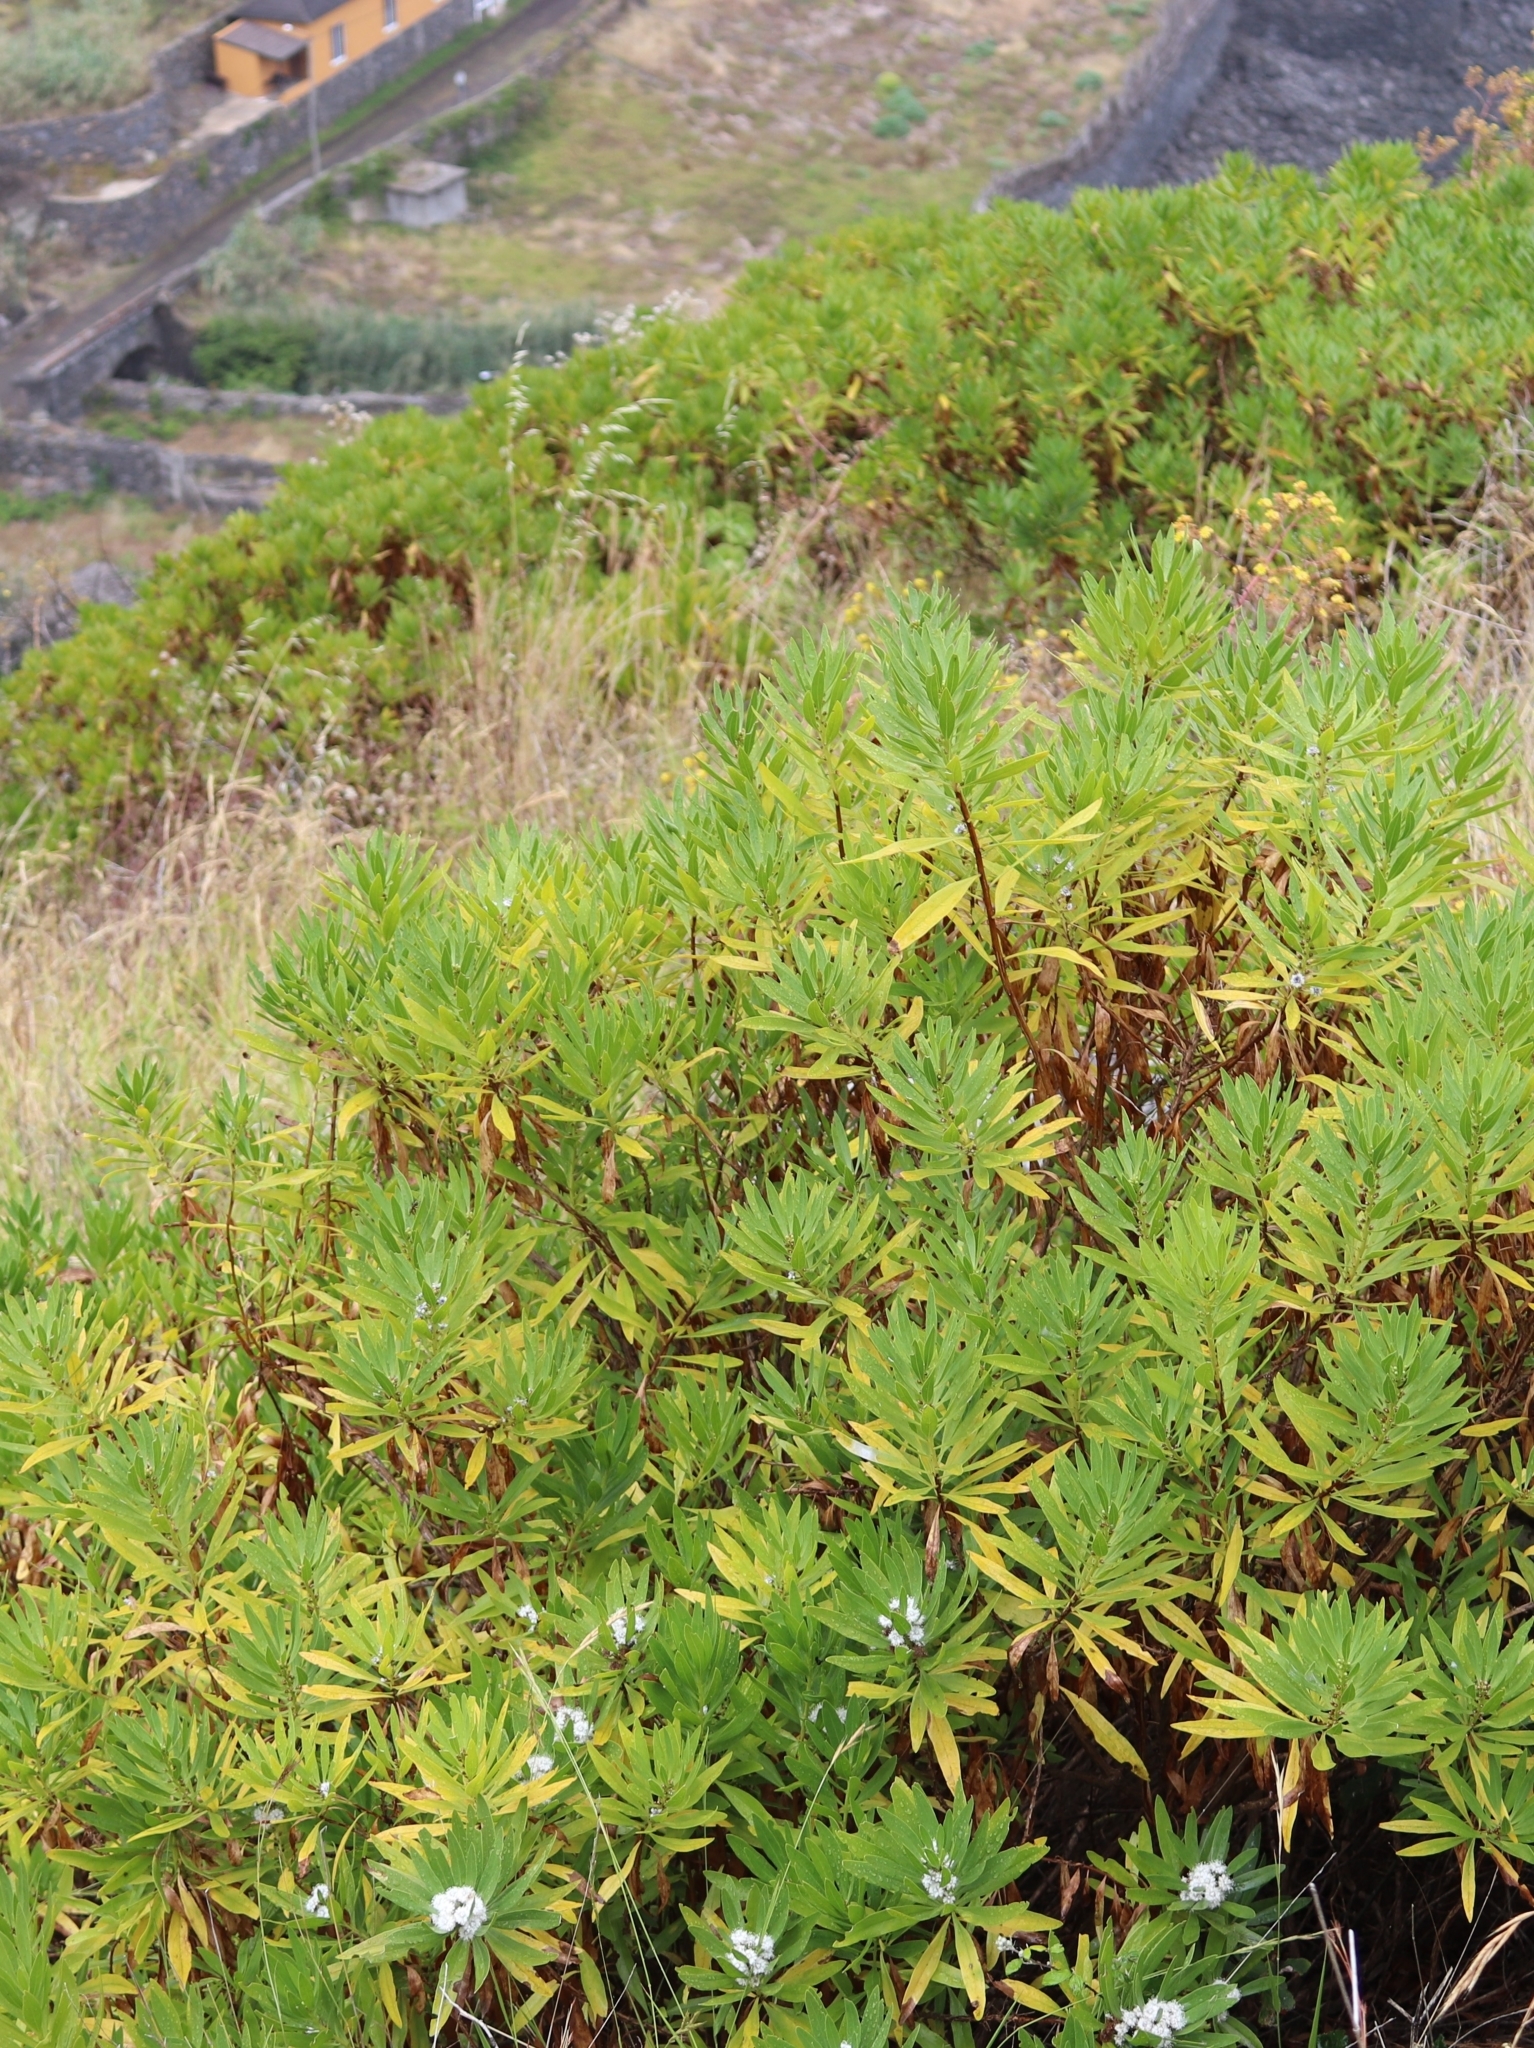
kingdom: Plantae
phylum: Tracheophyta
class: Magnoliopsida
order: Lamiales
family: Plantaginaceae
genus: Globularia
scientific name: Globularia salicina
